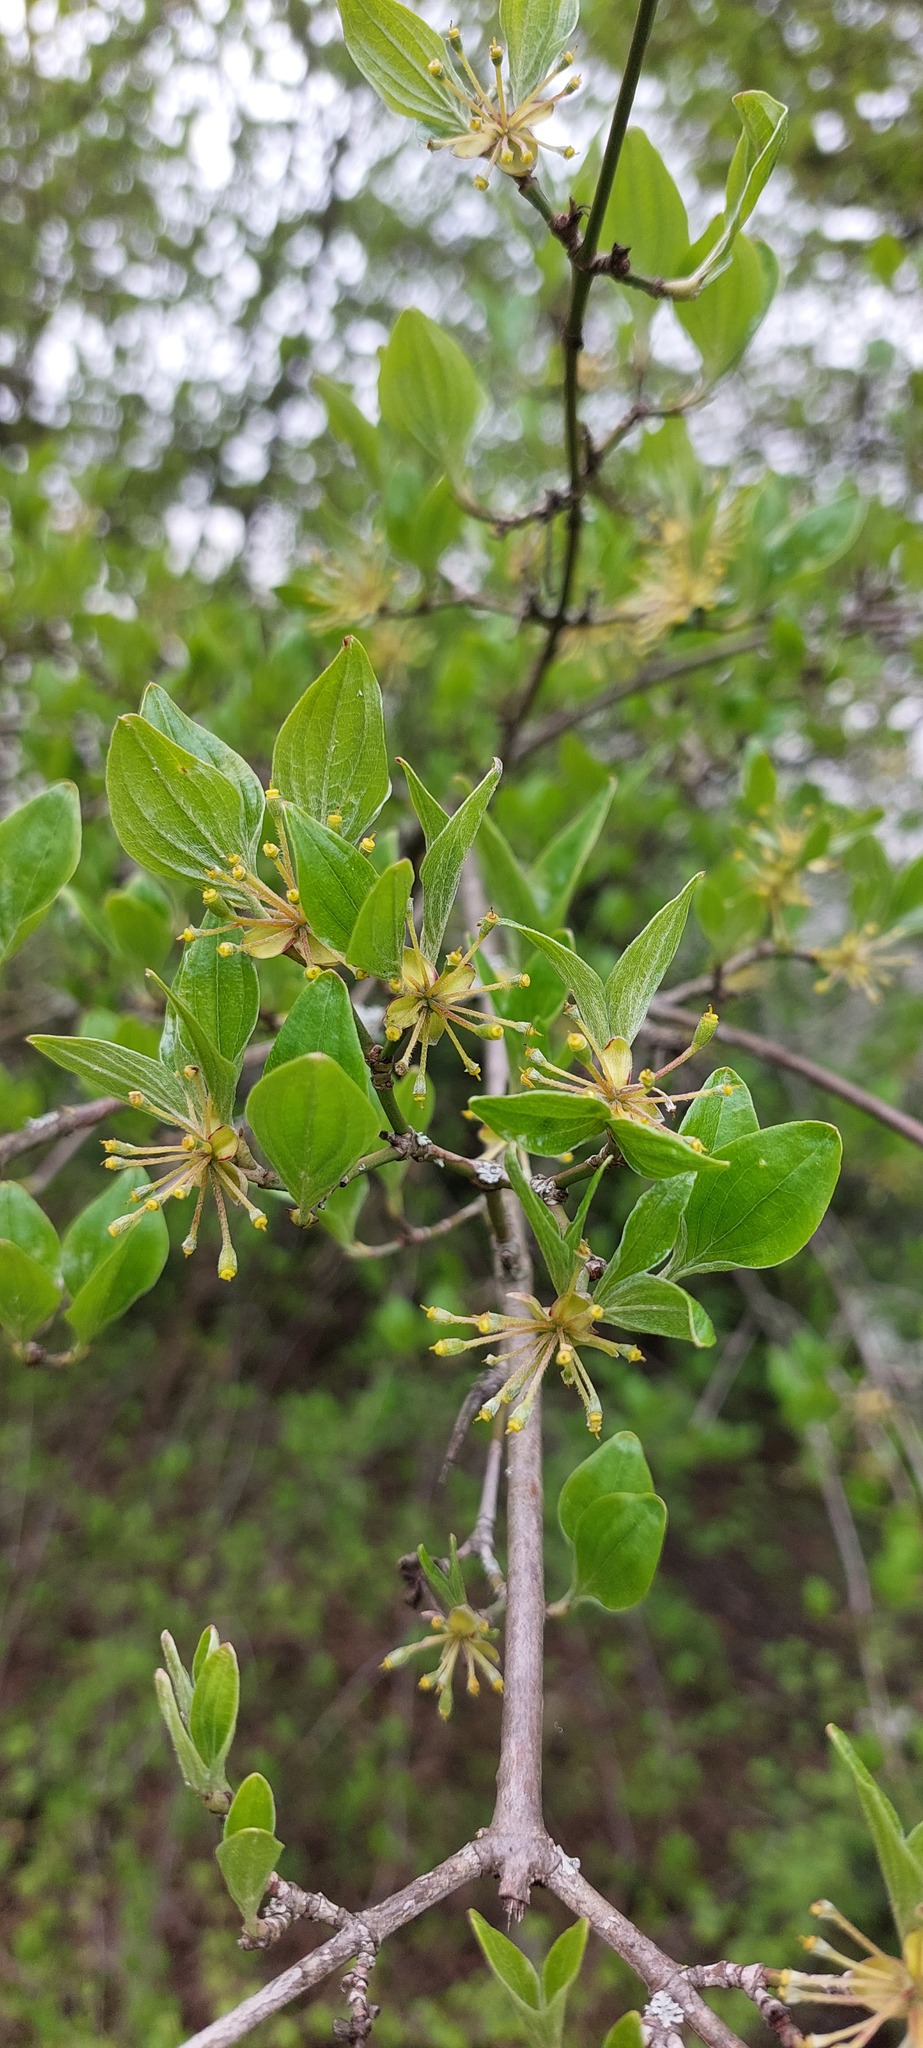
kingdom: Plantae
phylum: Tracheophyta
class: Magnoliopsida
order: Cornales
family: Cornaceae
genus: Cornus
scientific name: Cornus mas
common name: Cornelian-cherry
